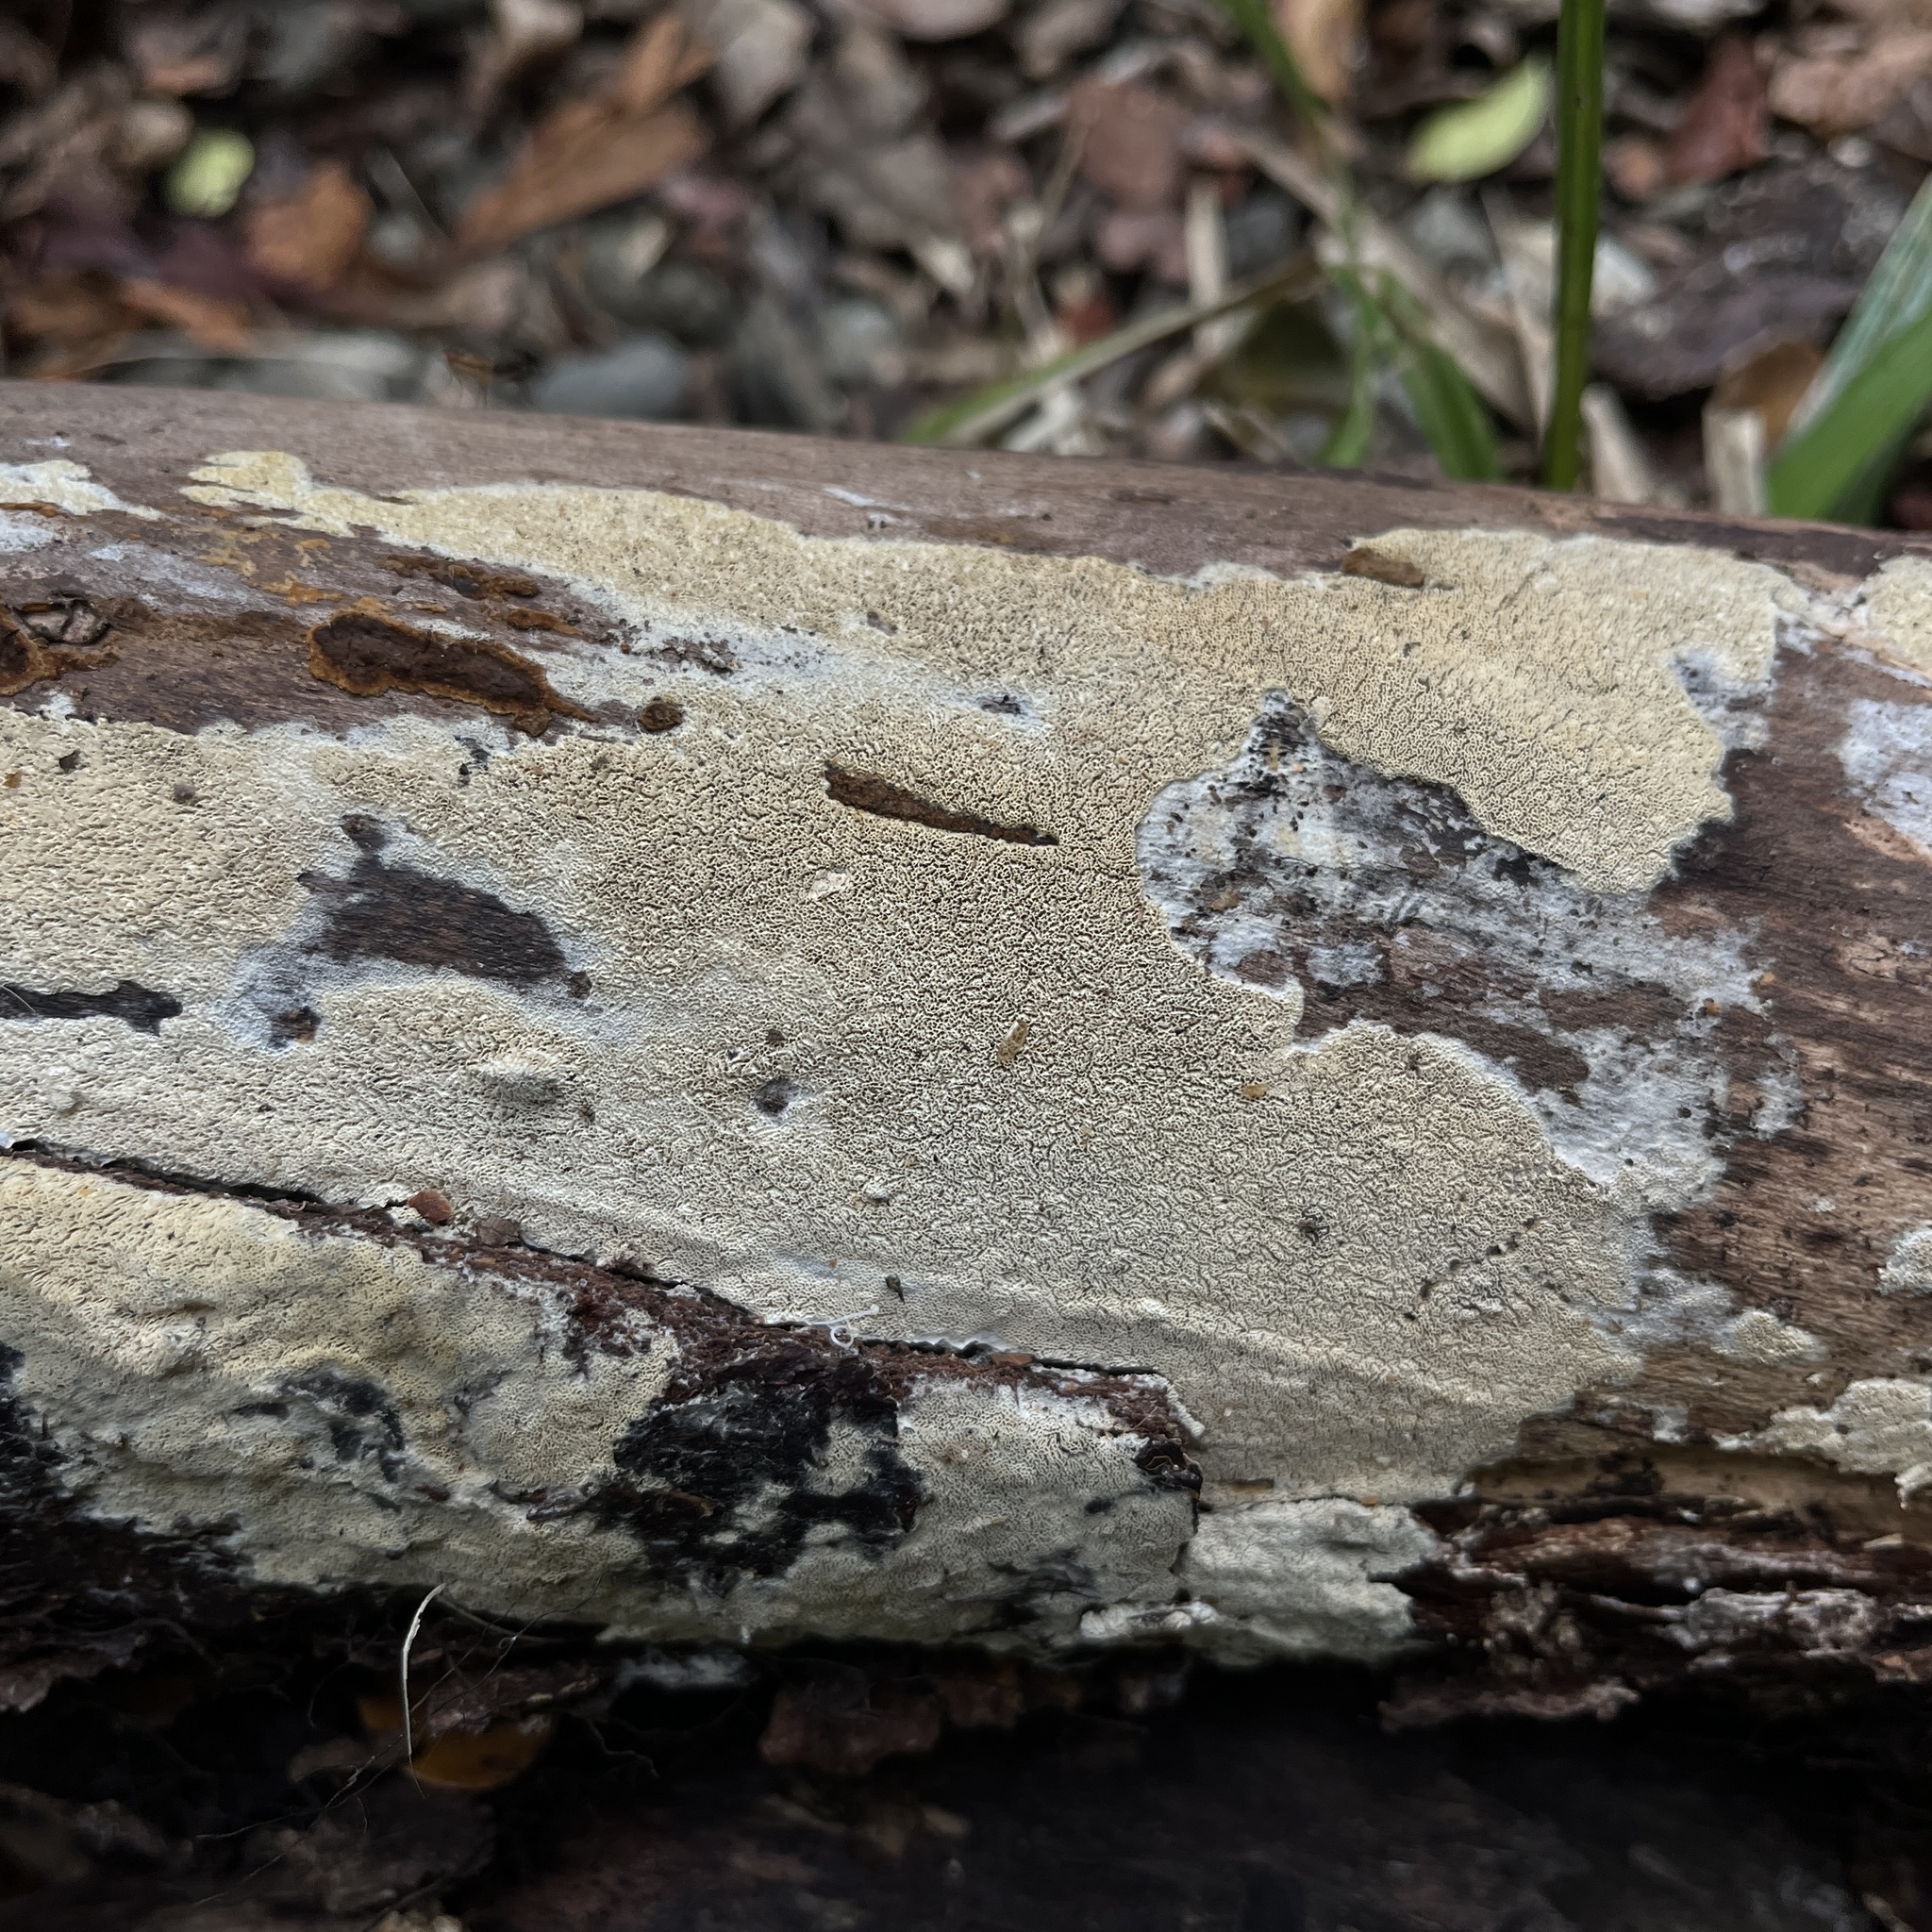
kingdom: Fungi
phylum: Basidiomycota
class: Agaricomycetes
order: Hymenochaetales
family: Schizoporaceae
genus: Schizopora
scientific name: Schizopora paradoxa
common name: Split porecrust
